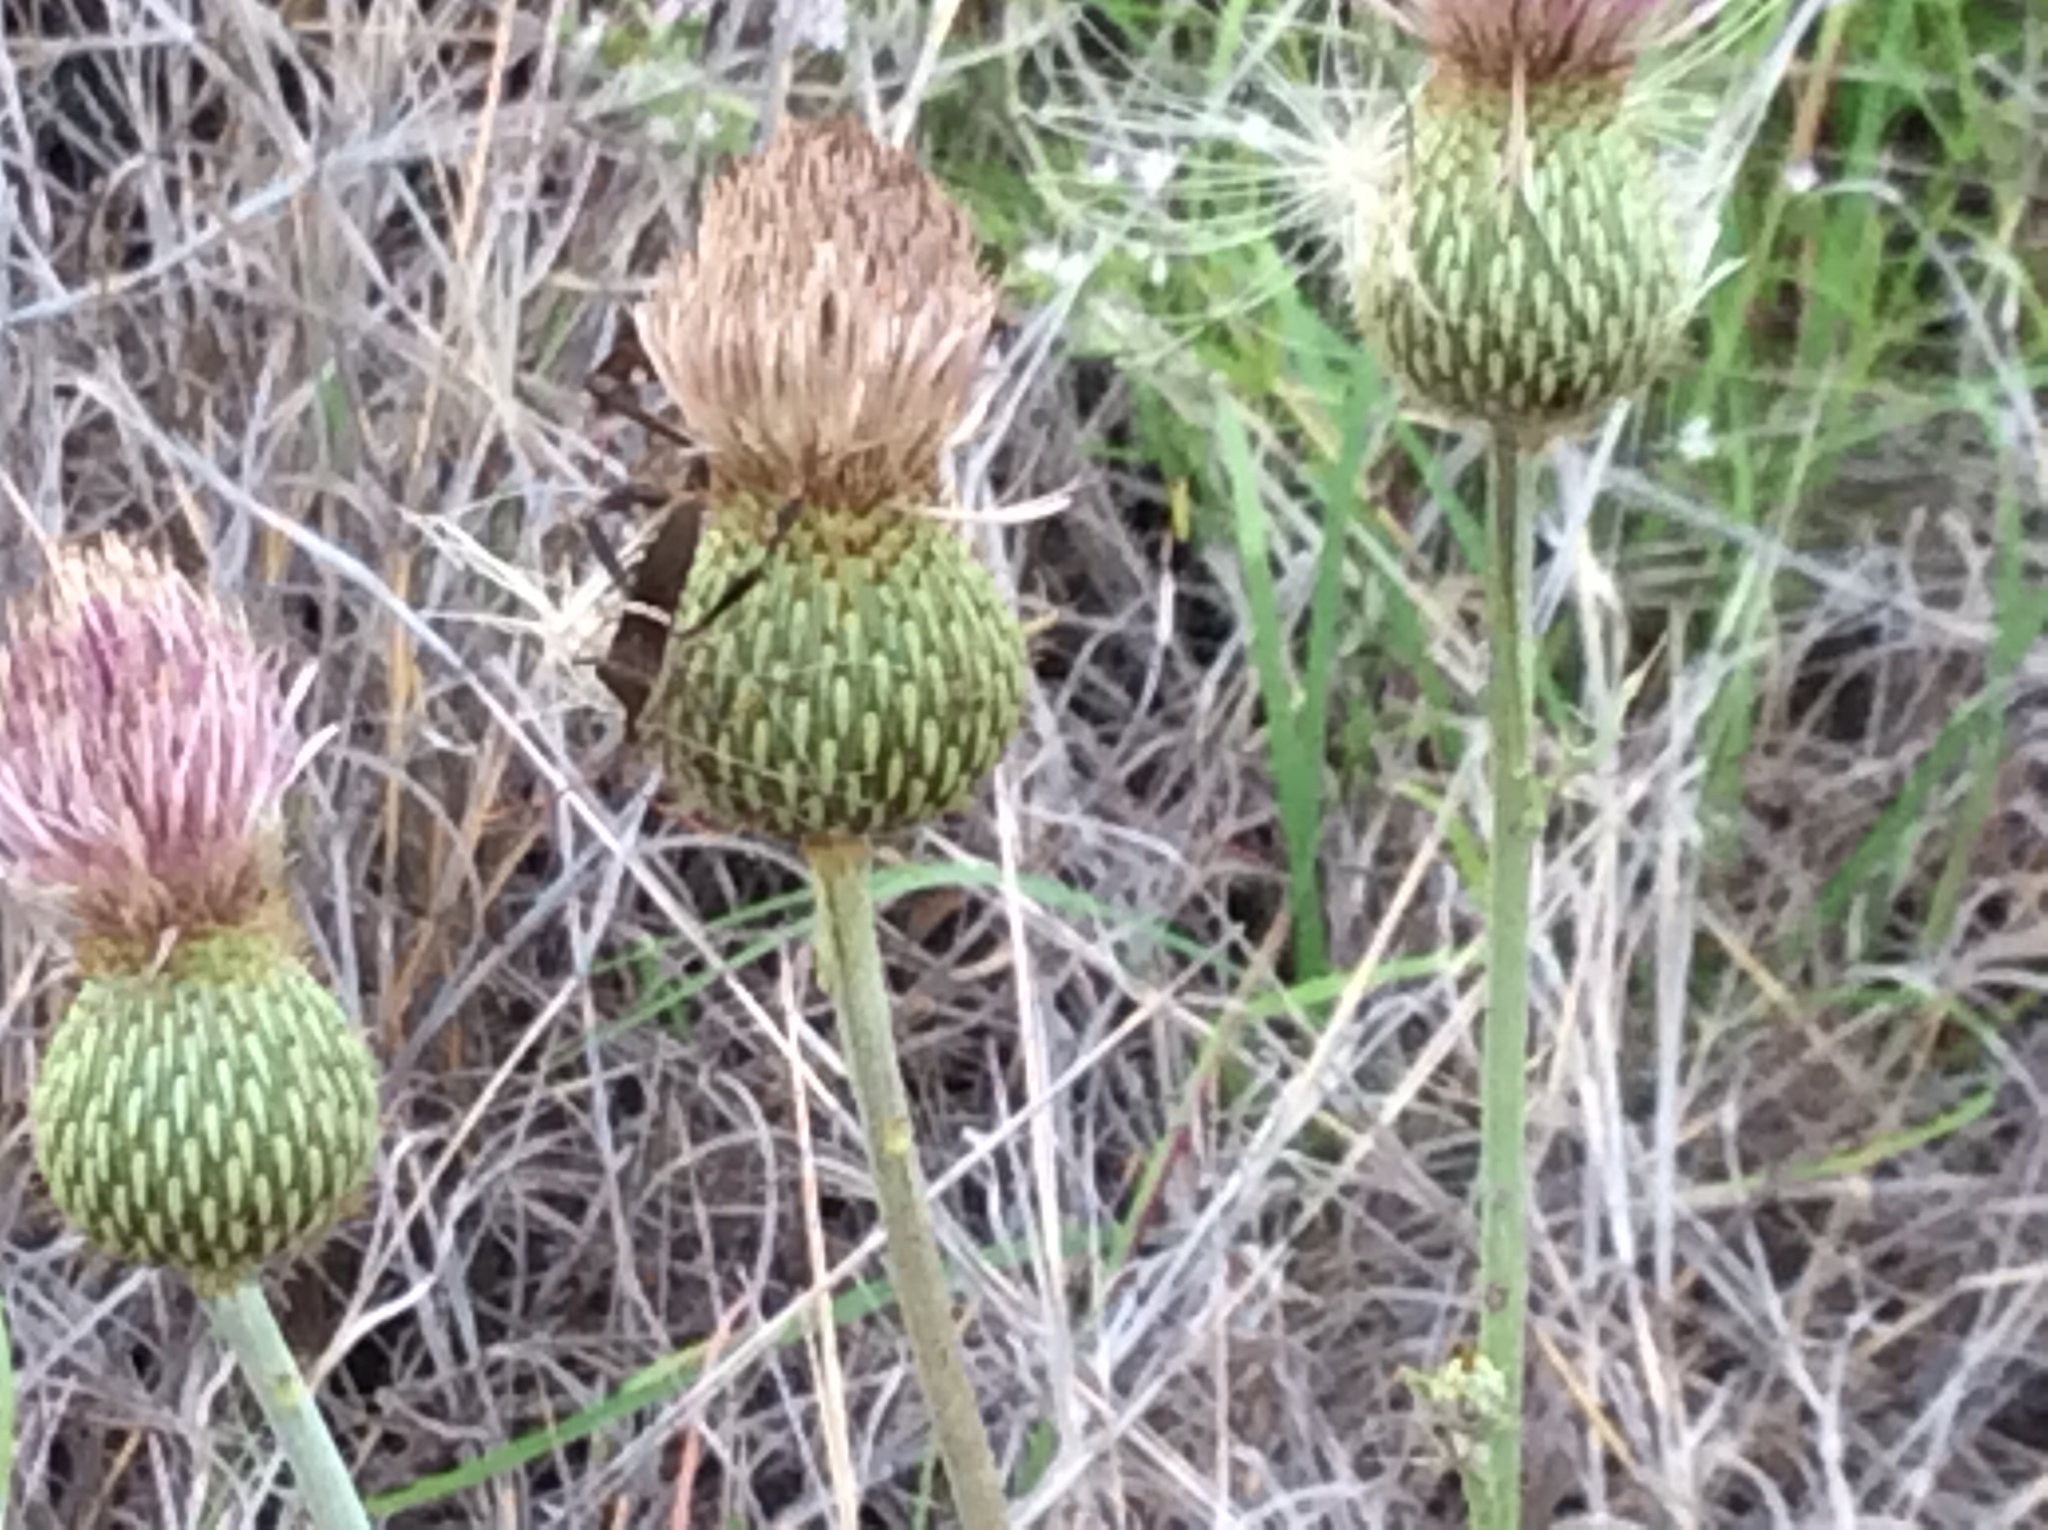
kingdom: Animalia
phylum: Arthropoda
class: Insecta
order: Hemiptera
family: Coreidae
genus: Leptoglossus
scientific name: Leptoglossus phyllopus
